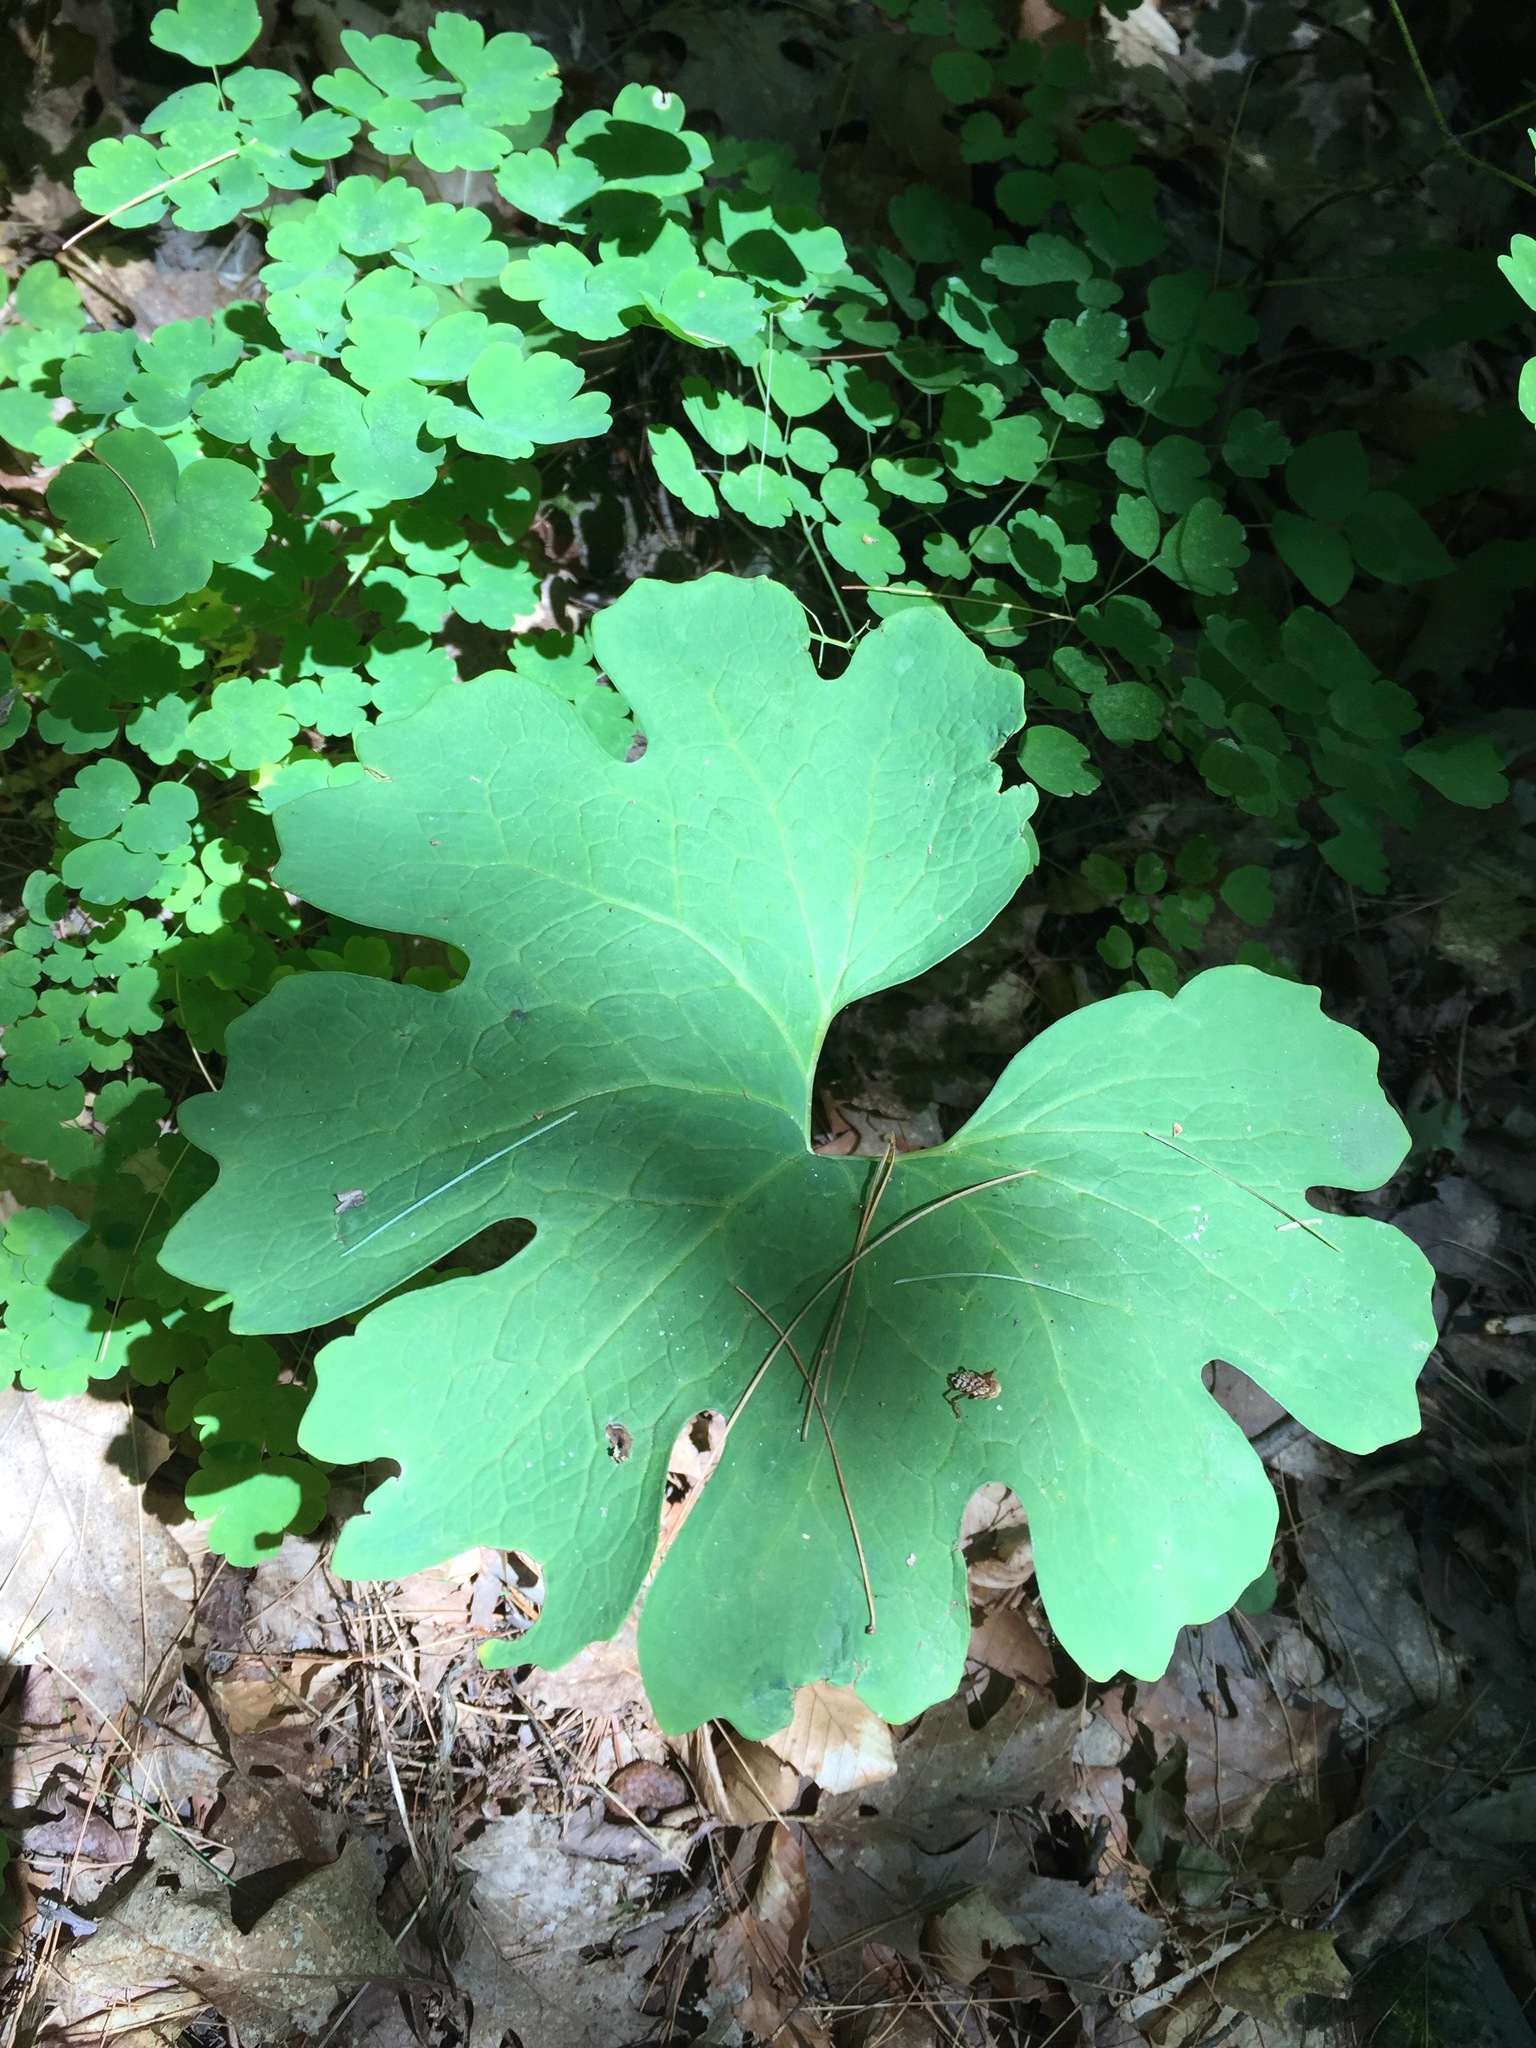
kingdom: Plantae
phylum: Tracheophyta
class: Magnoliopsida
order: Ranunculales
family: Papaveraceae
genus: Sanguinaria
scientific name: Sanguinaria canadensis
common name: Bloodroot
